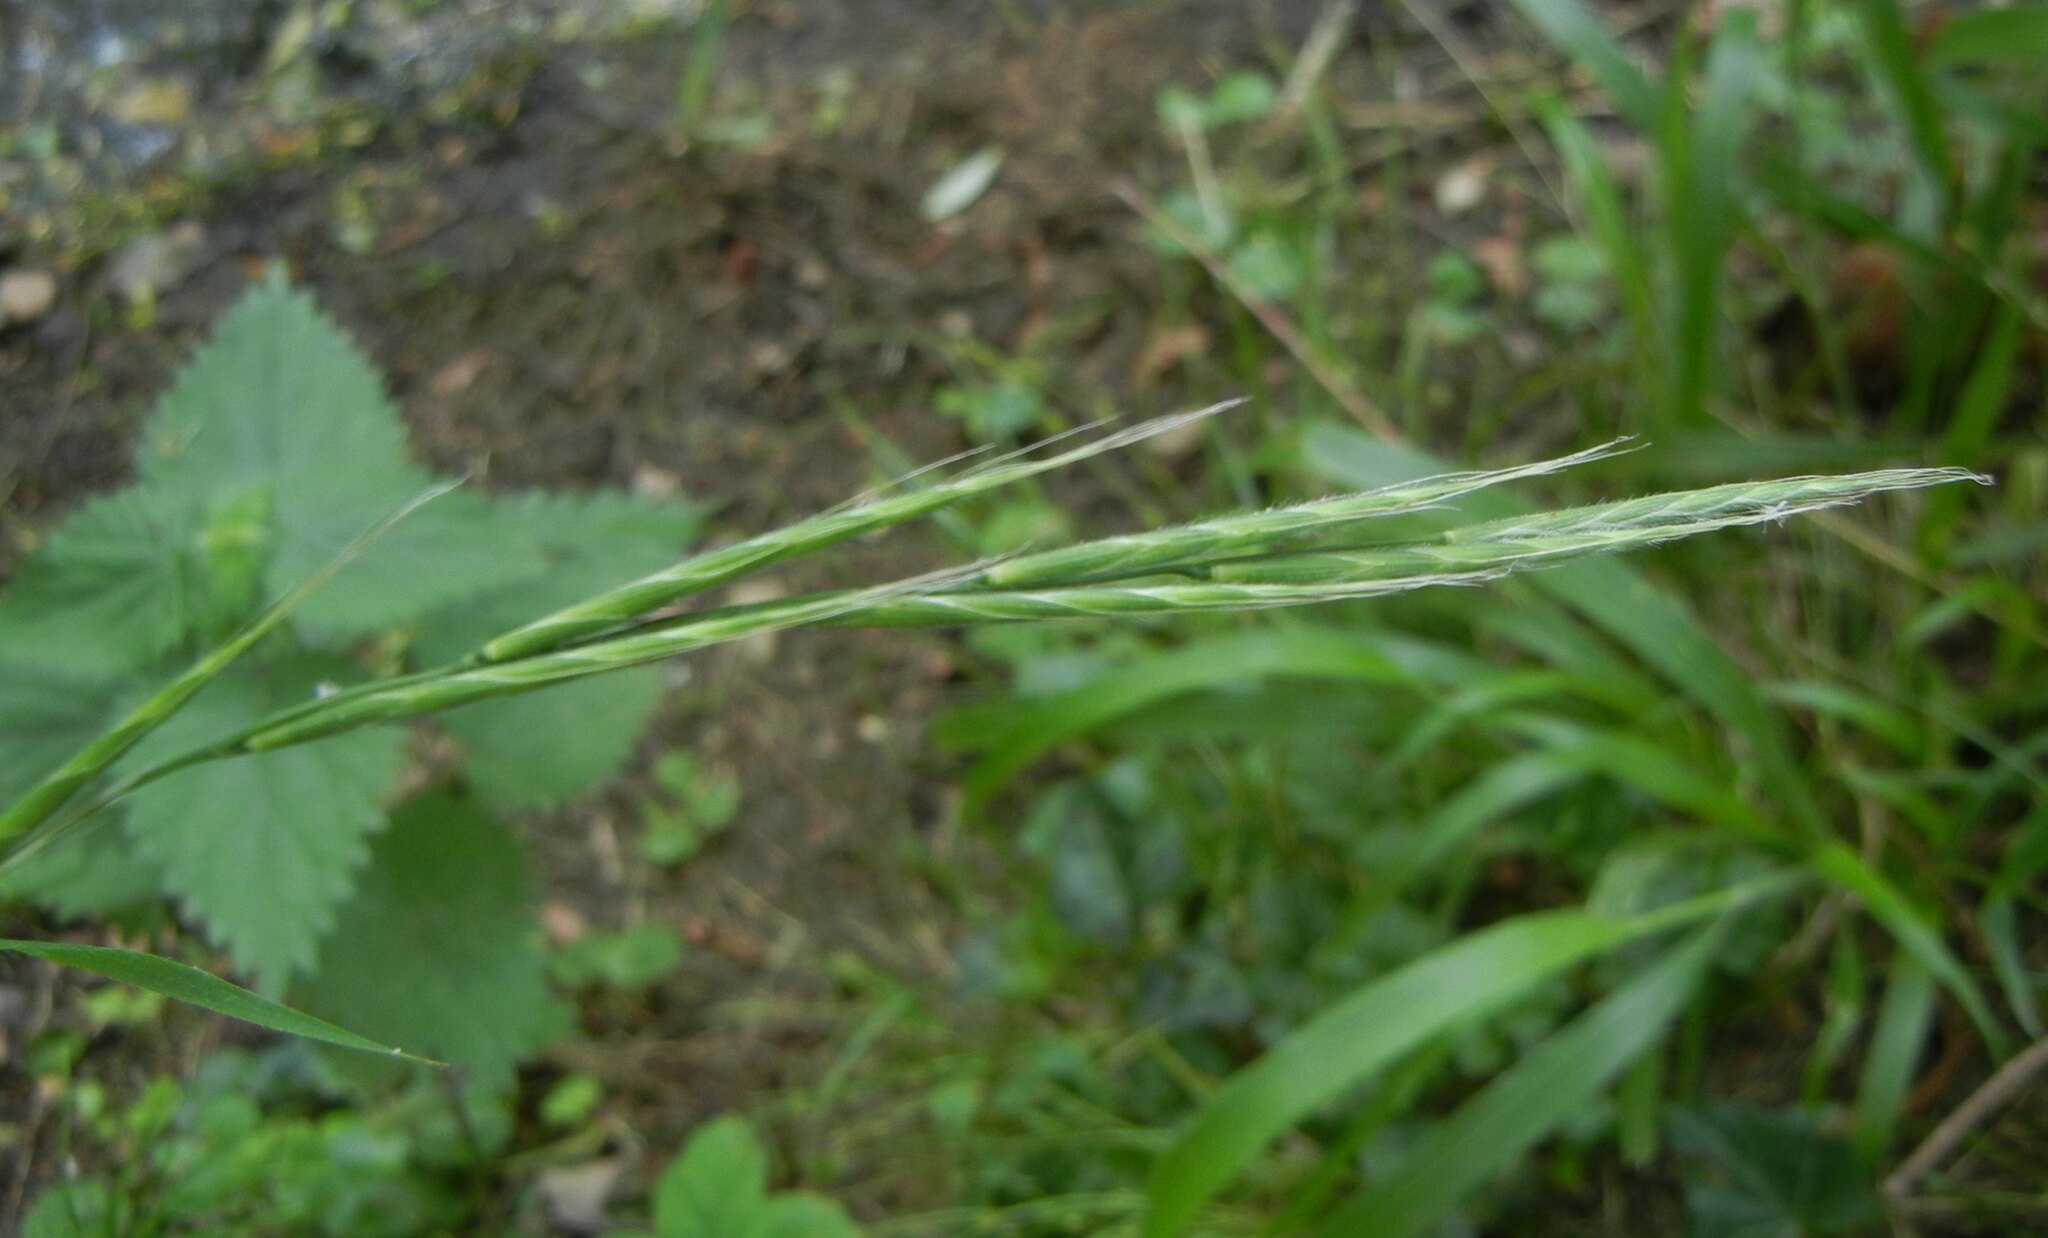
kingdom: Plantae
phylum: Tracheophyta
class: Liliopsida
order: Poales
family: Poaceae
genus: Brachypodium
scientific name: Brachypodium sylvaticum
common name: False-brome
